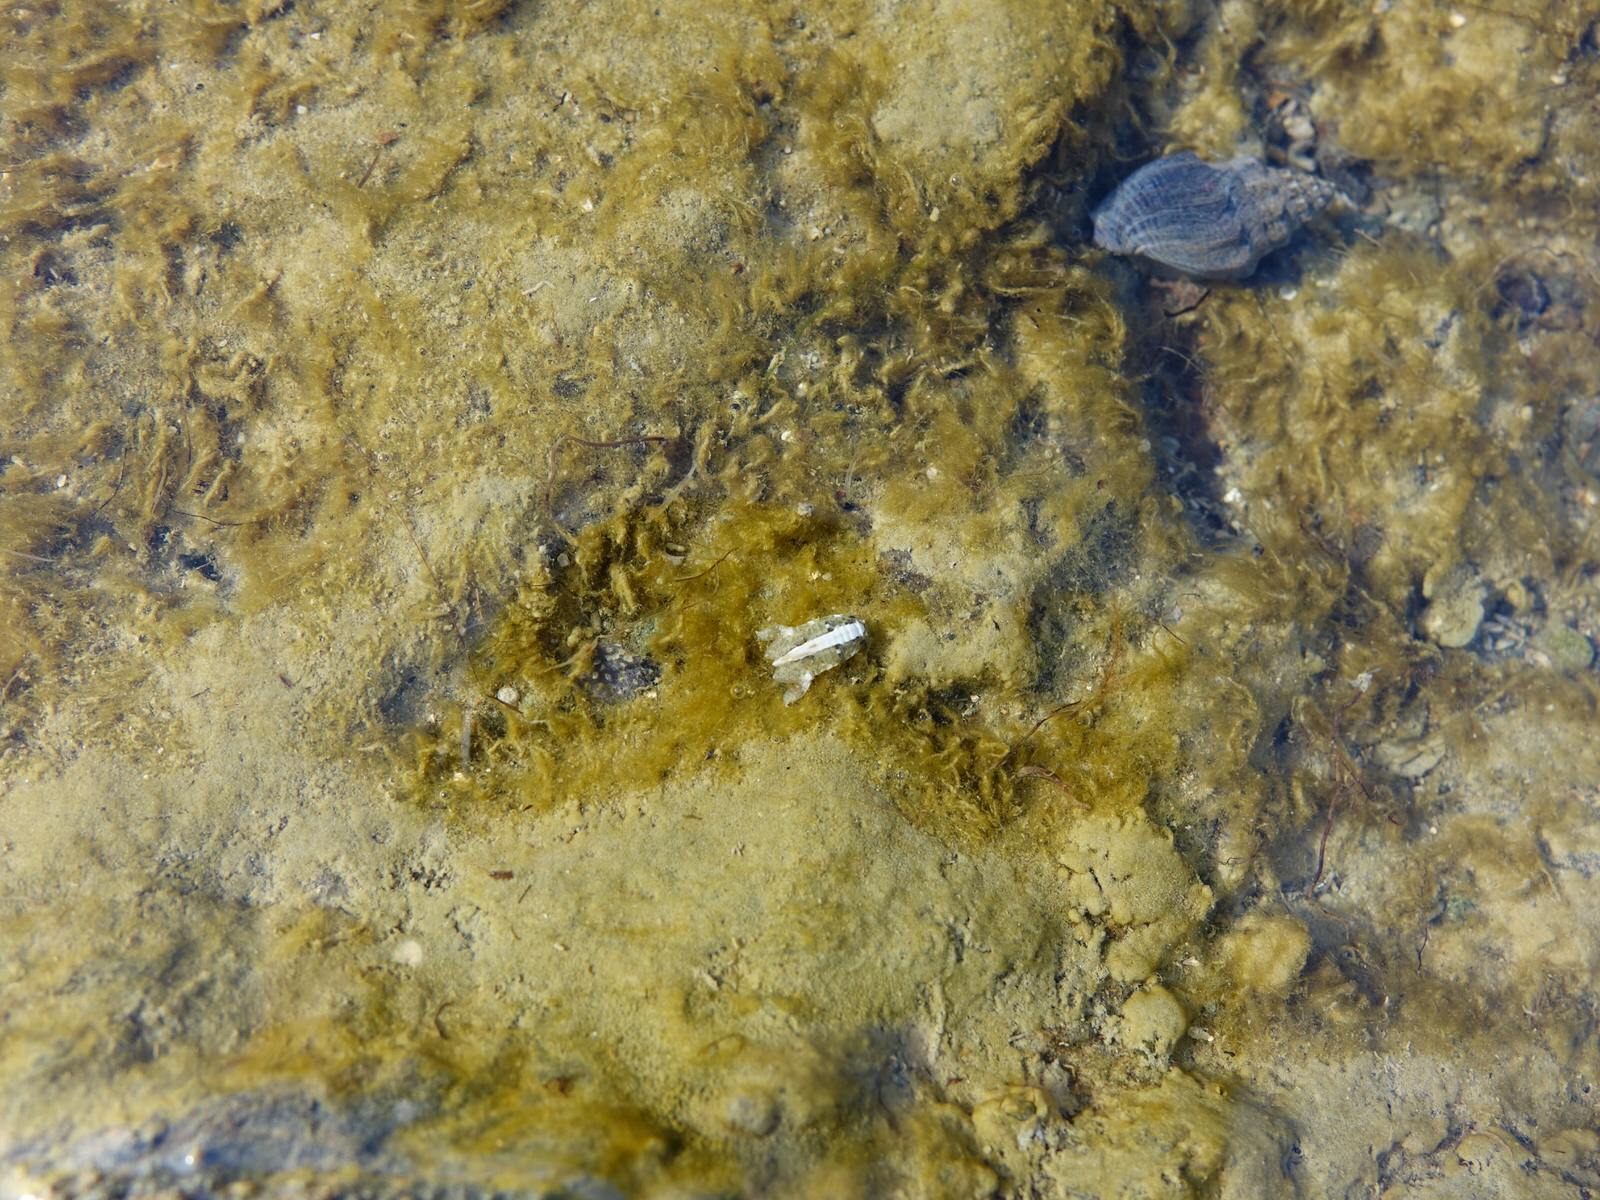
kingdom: Animalia
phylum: Arthropoda
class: Malacostraca
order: Isopoda
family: Sphaeromatidae
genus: Isocladus
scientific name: Isocladus armatus
